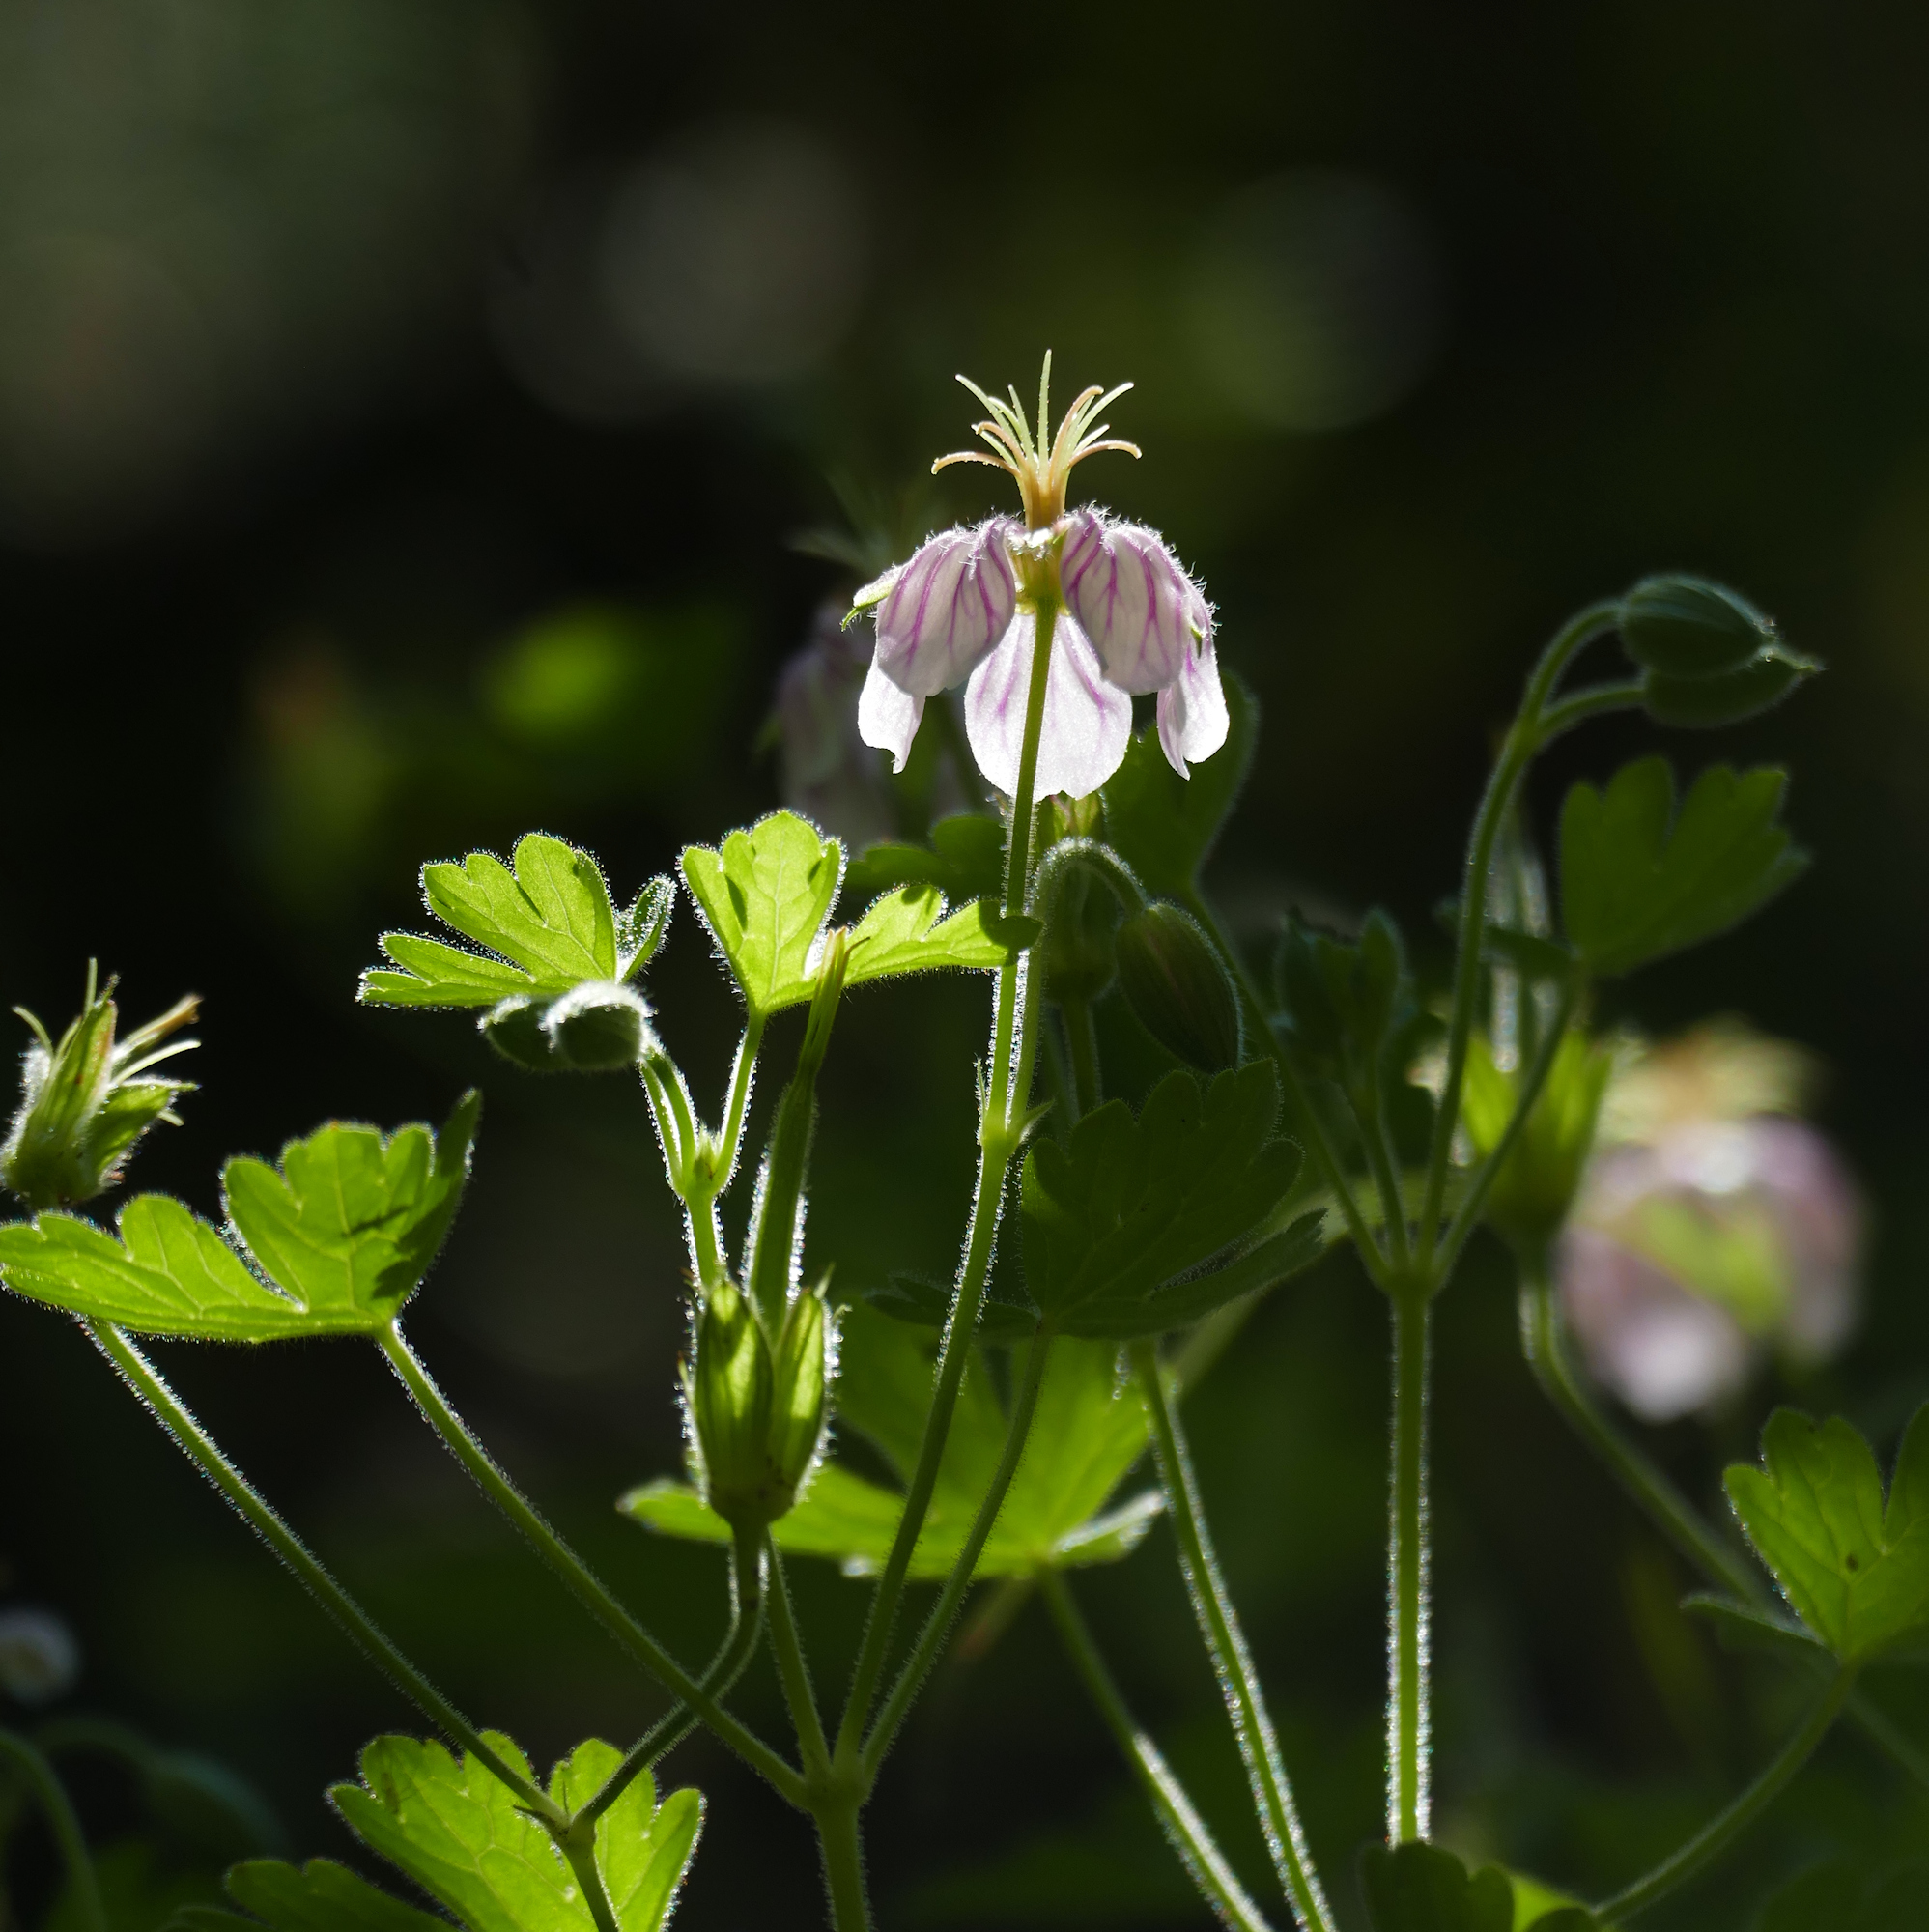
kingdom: Plantae
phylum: Tracheophyta
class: Magnoliopsida
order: Geraniales
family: Geraniaceae
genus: Geranium
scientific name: Geranium lentum
